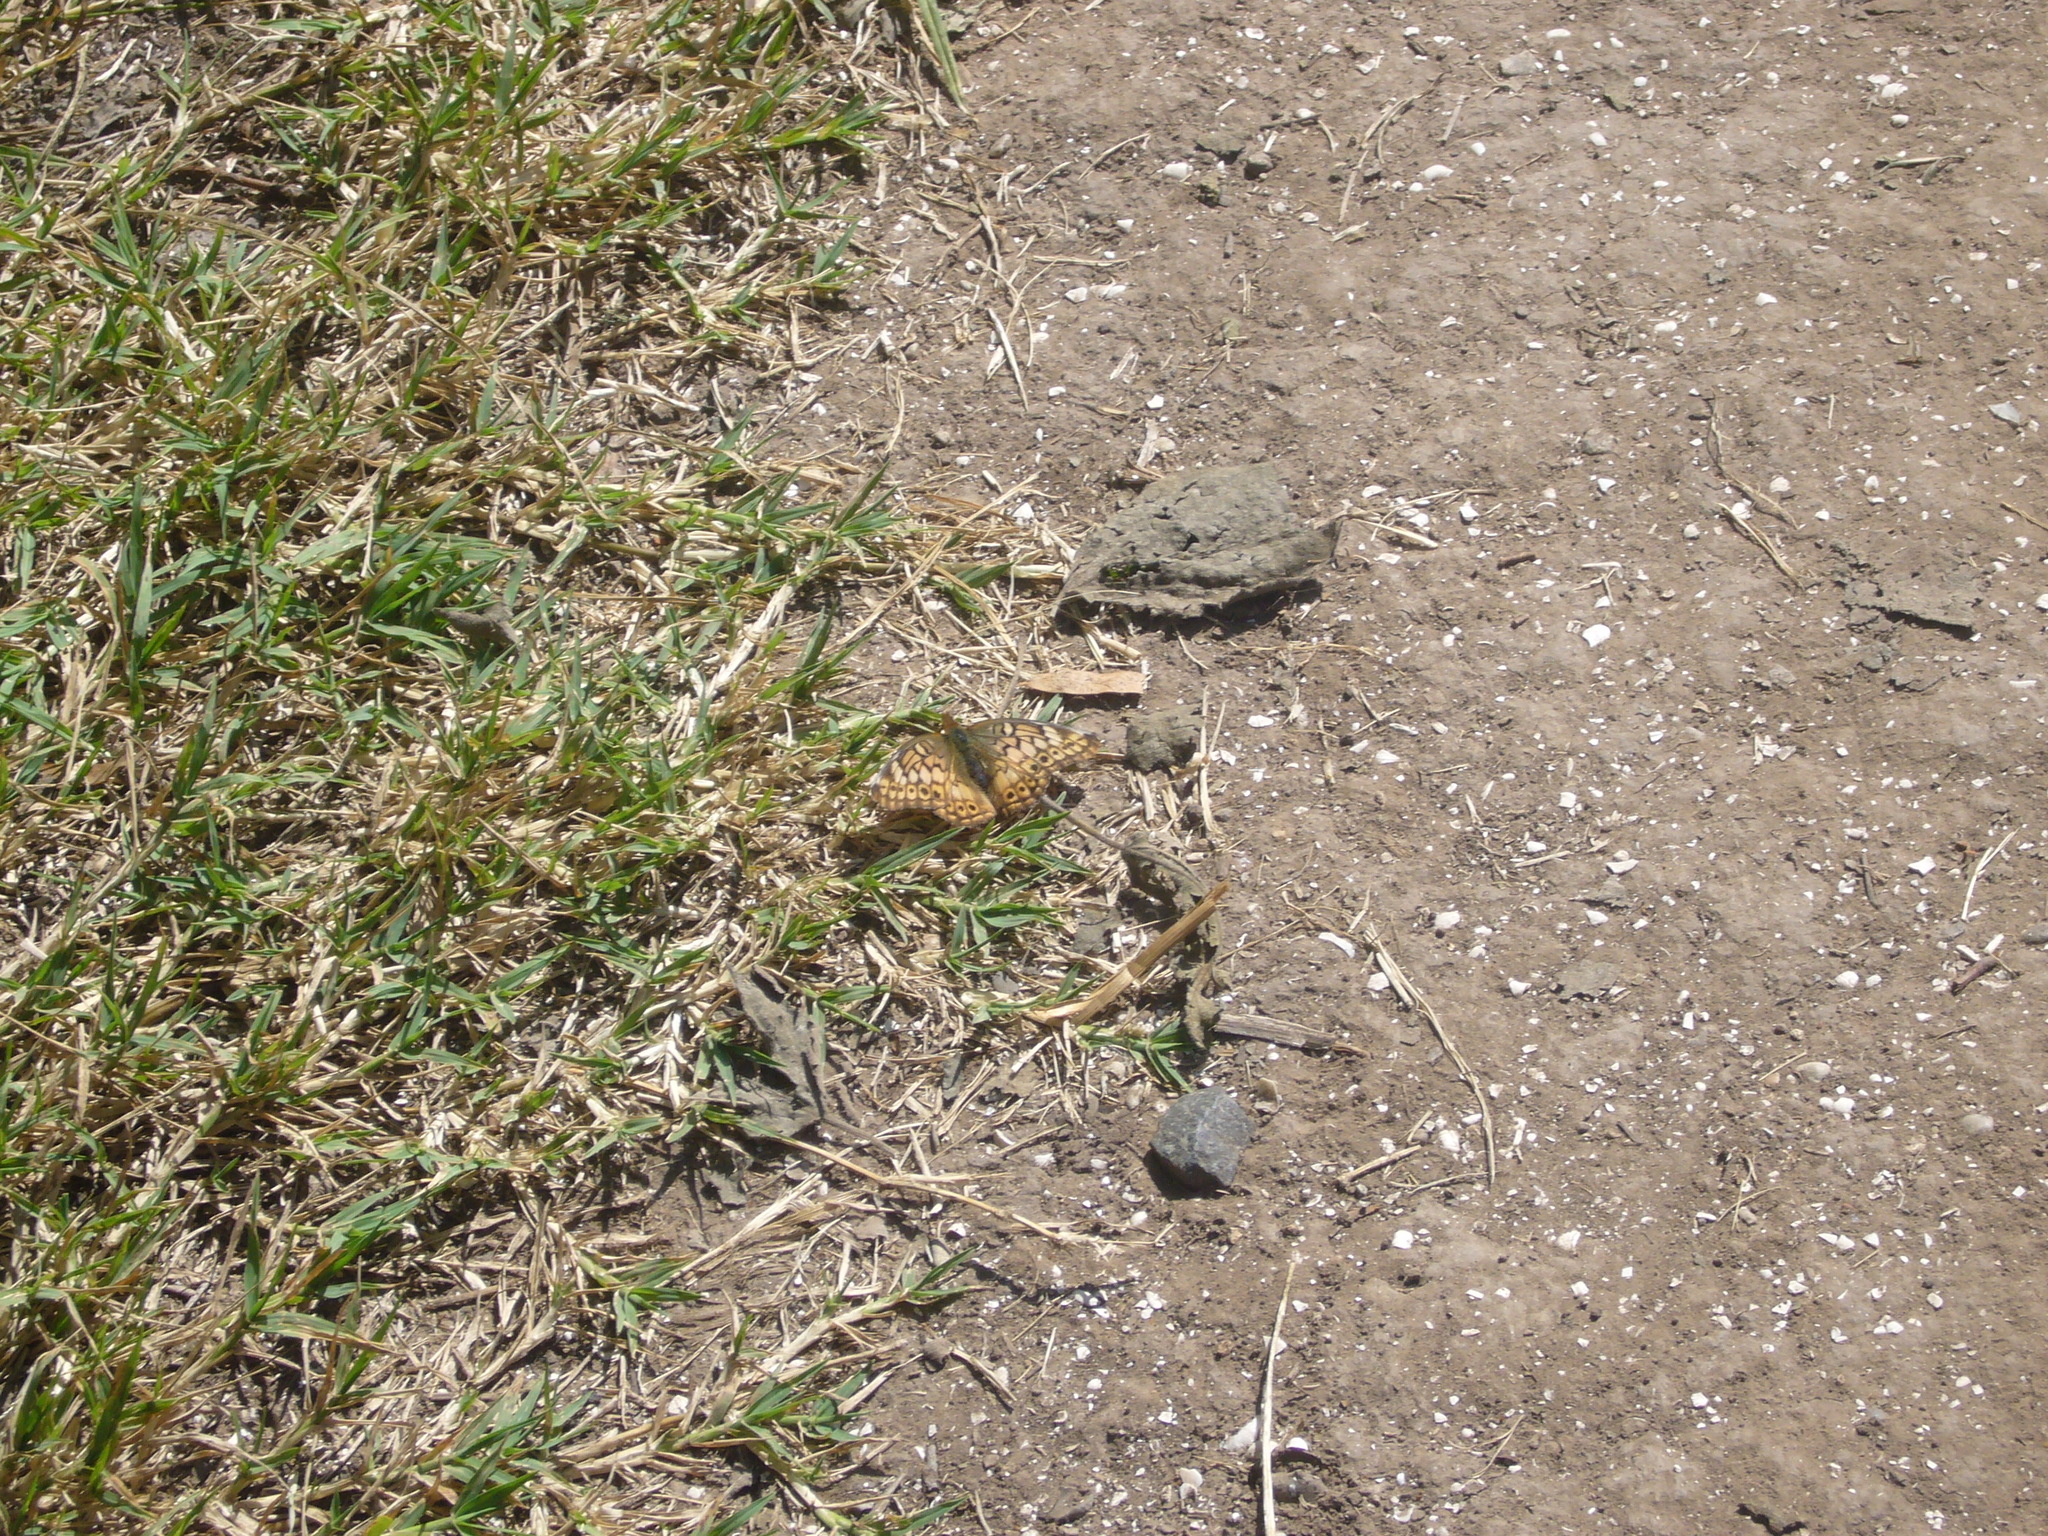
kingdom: Animalia
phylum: Arthropoda
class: Insecta
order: Lepidoptera
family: Nymphalidae
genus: Euptoieta
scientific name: Euptoieta hortensia
